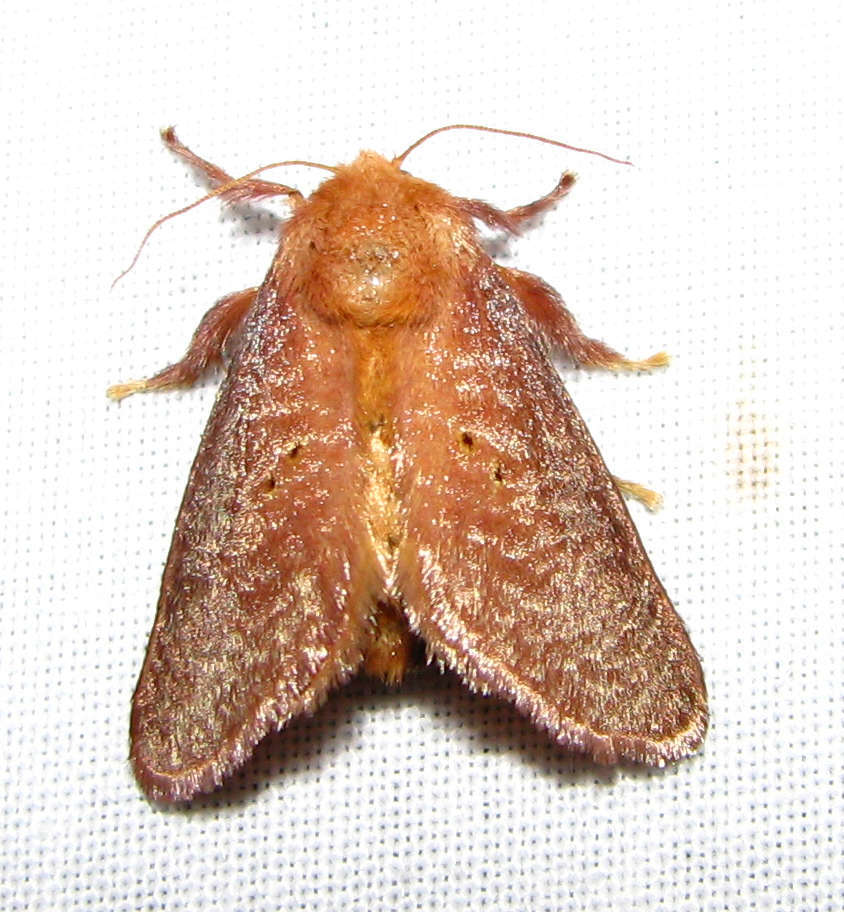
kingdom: Animalia
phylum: Arthropoda
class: Insecta
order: Lepidoptera
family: Limacodidae
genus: Doratifera
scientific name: Doratifera quadriguttata
